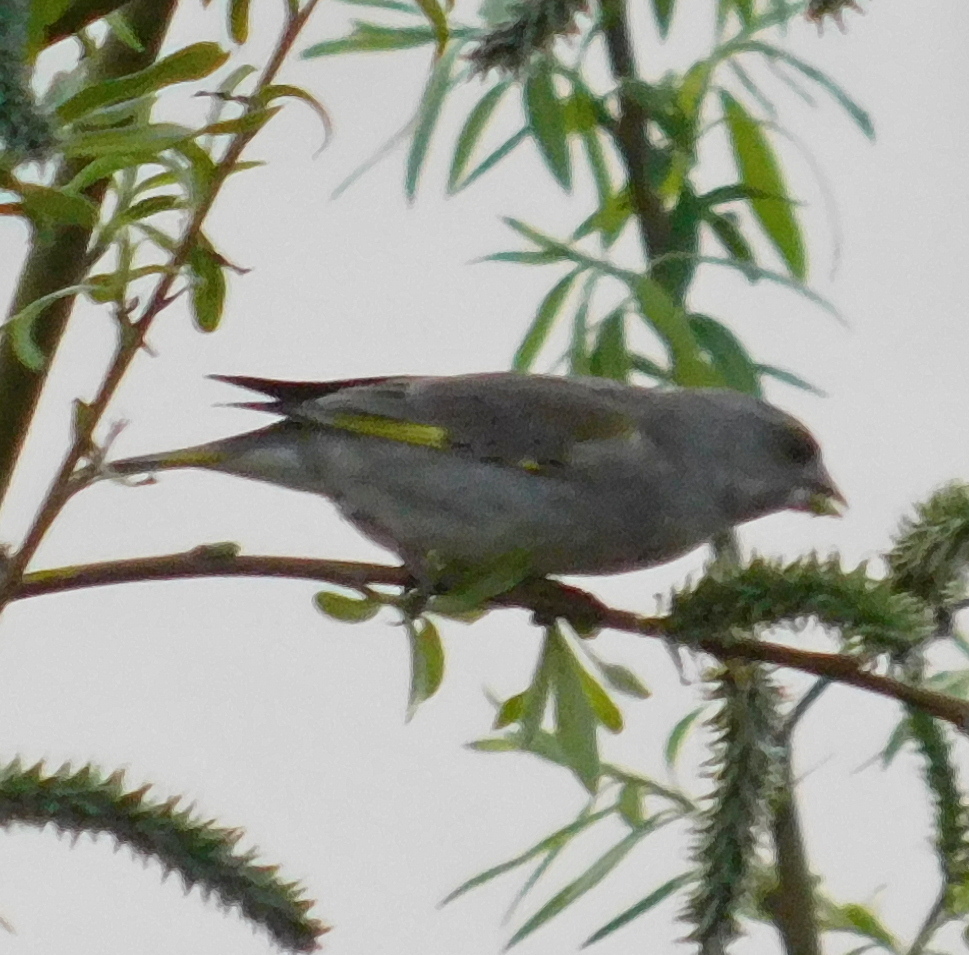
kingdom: Plantae
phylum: Tracheophyta
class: Liliopsida
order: Poales
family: Poaceae
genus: Chloris
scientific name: Chloris chloris
